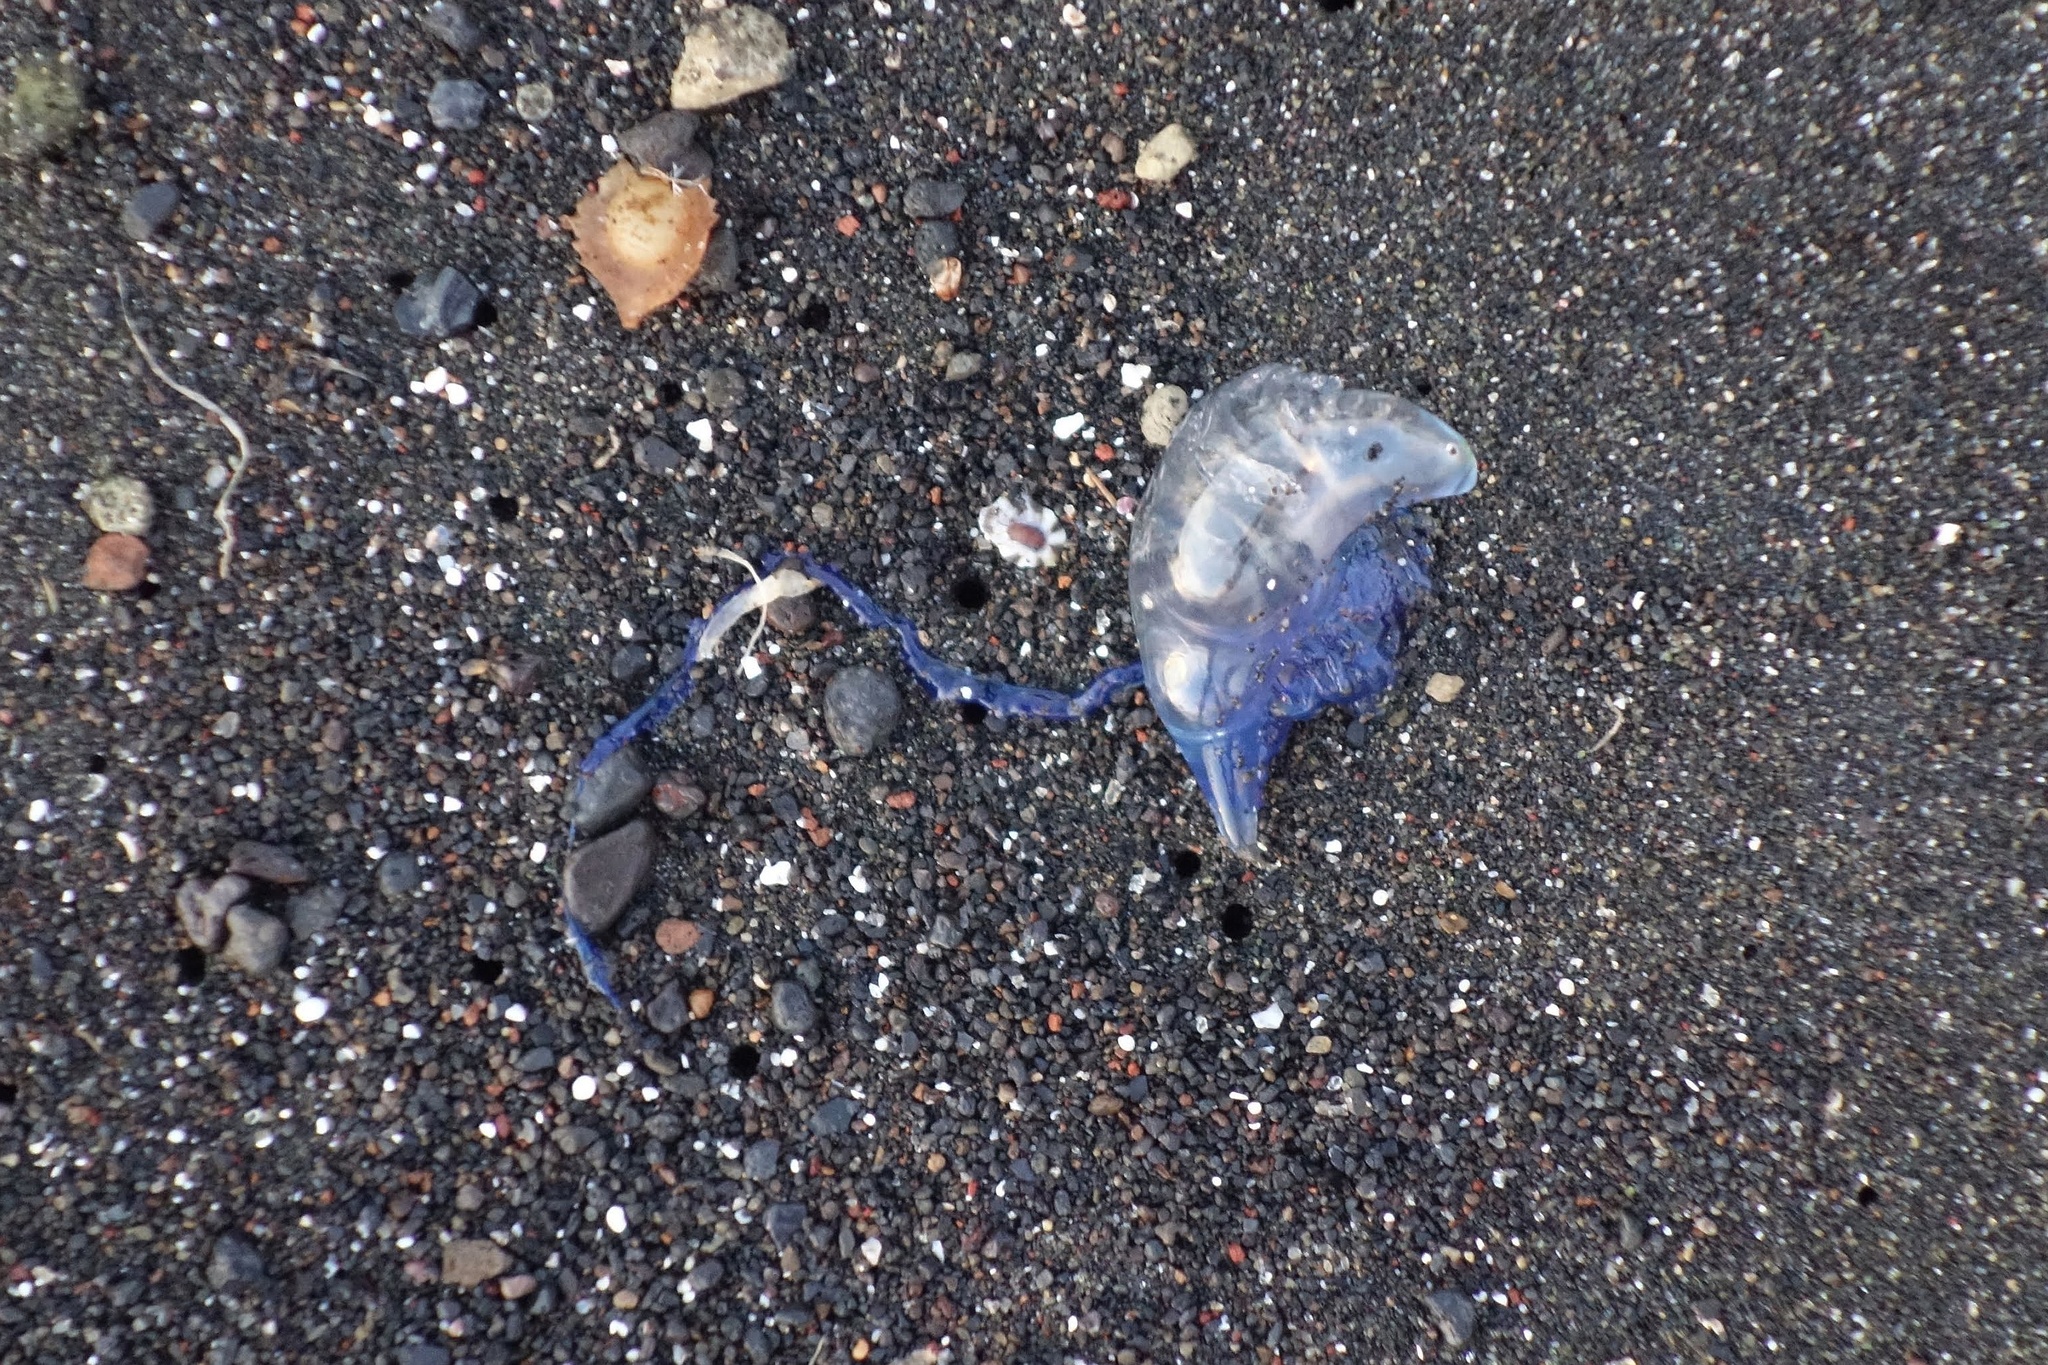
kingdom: Animalia
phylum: Cnidaria
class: Hydrozoa
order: Siphonophorae
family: Physaliidae
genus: Physalia
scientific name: Physalia physalis
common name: Portuguese man-of-war
